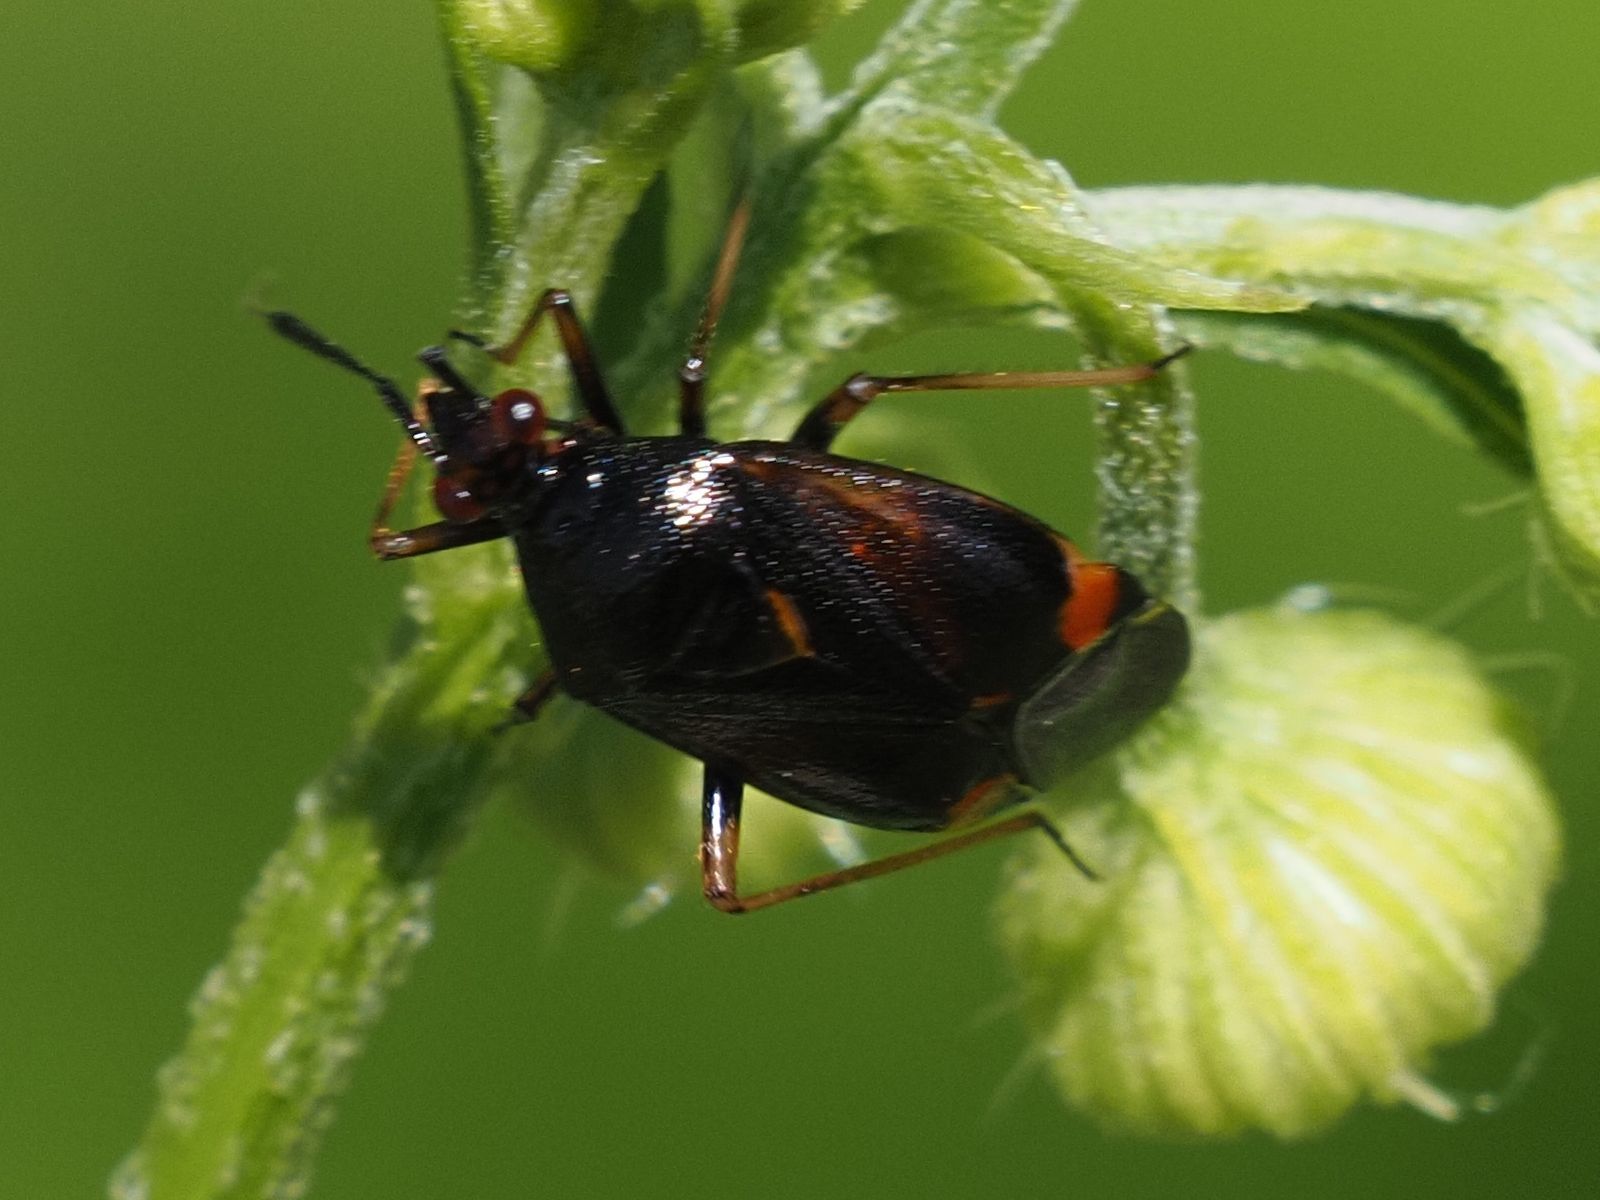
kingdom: Animalia
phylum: Arthropoda
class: Insecta
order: Hemiptera
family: Miridae
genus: Deraeocoris
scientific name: Deraeocoris ruber
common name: Plant bug
